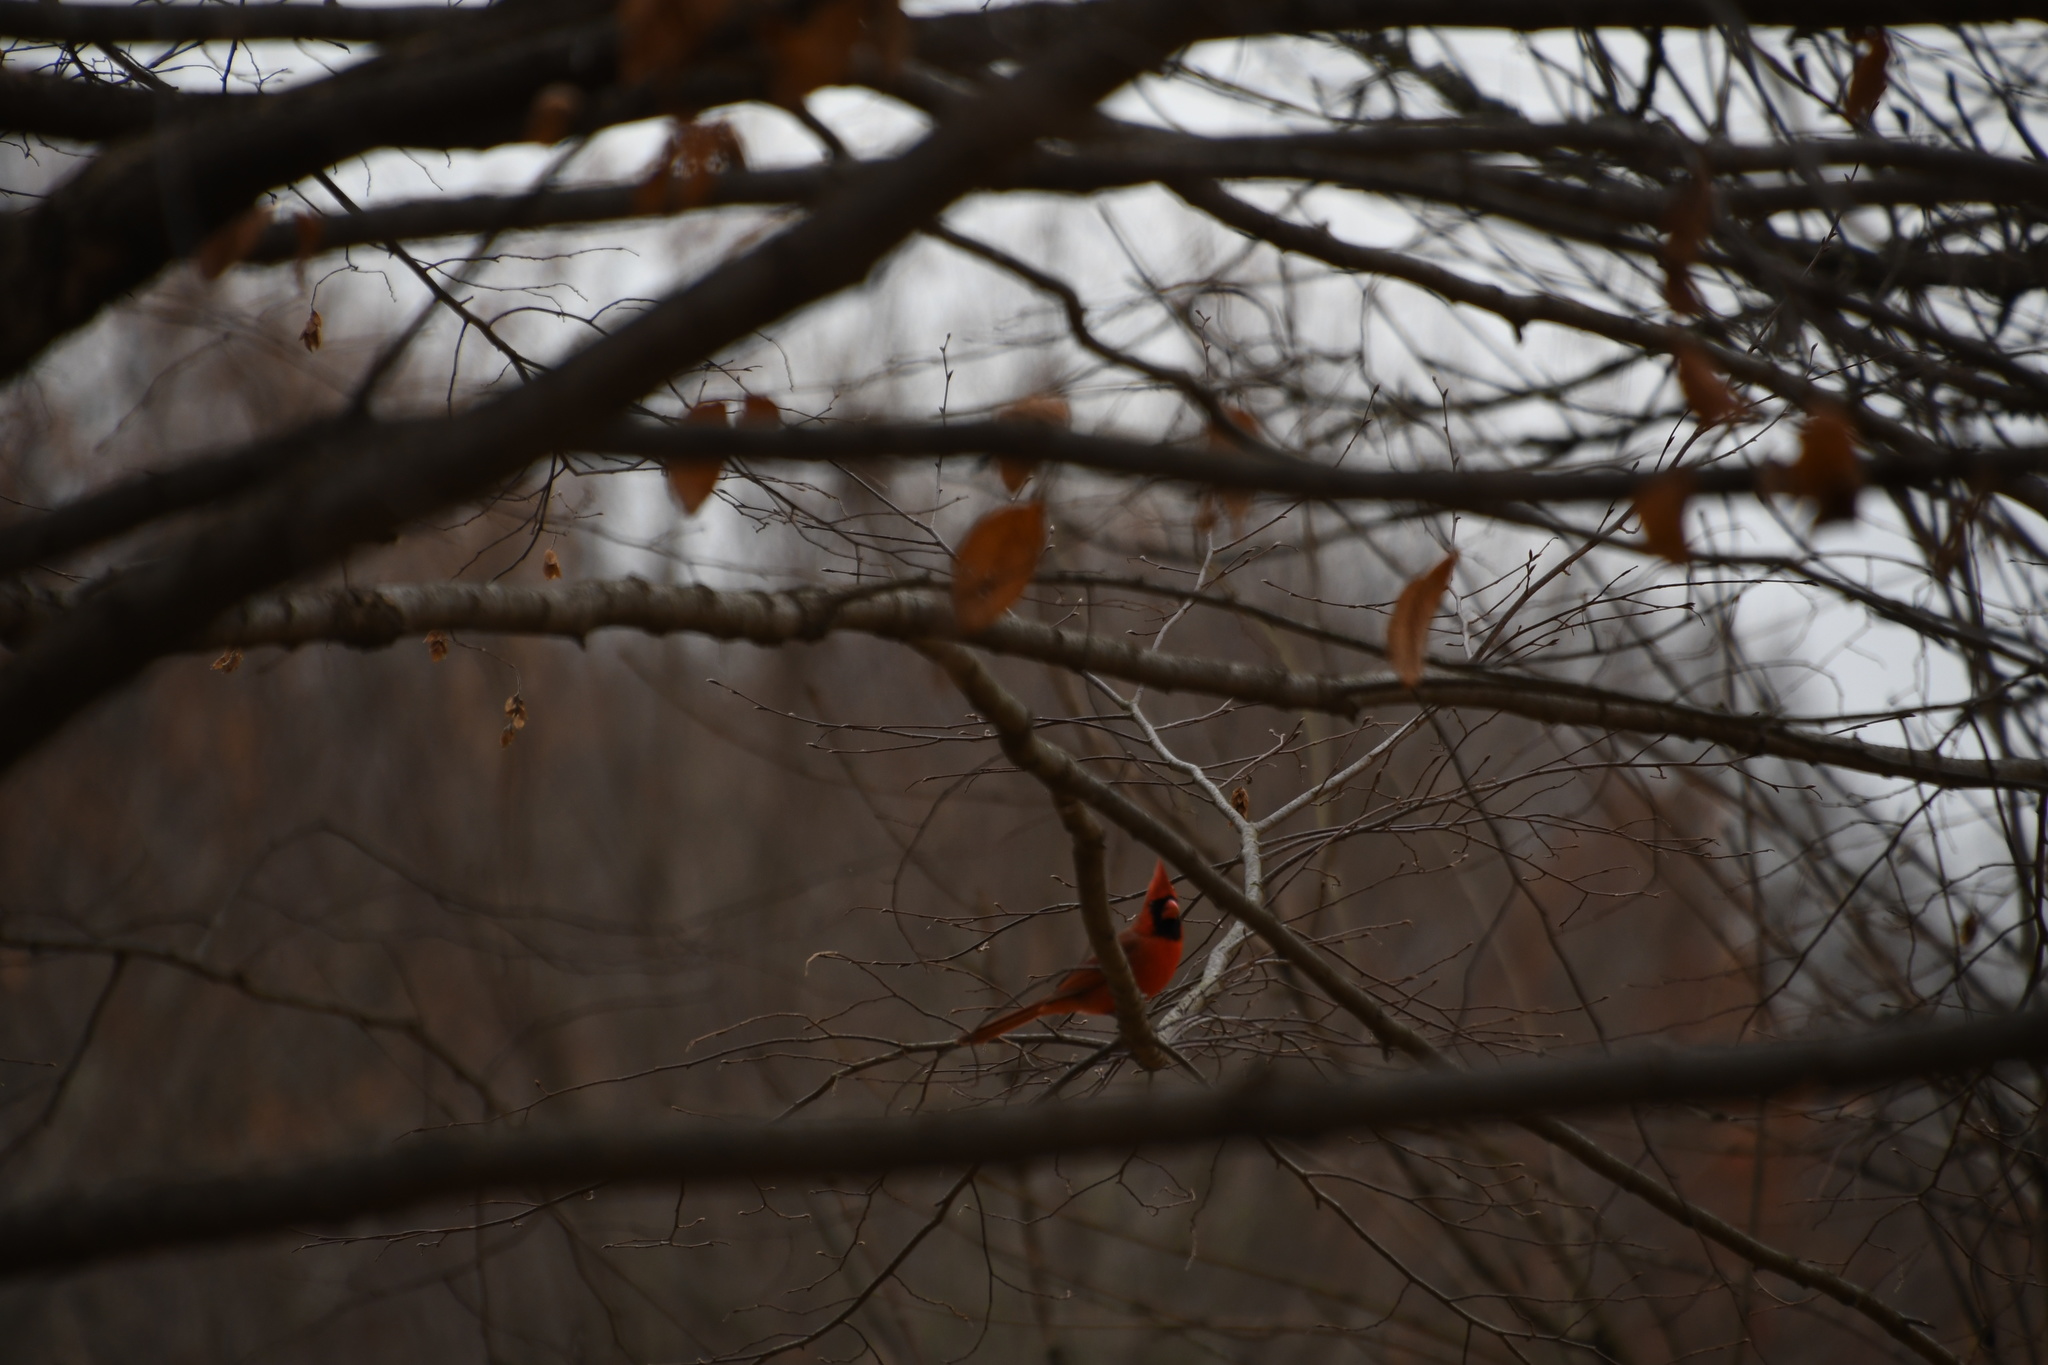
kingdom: Animalia
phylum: Chordata
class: Aves
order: Passeriformes
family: Cardinalidae
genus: Cardinalis
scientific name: Cardinalis cardinalis
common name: Northern cardinal
